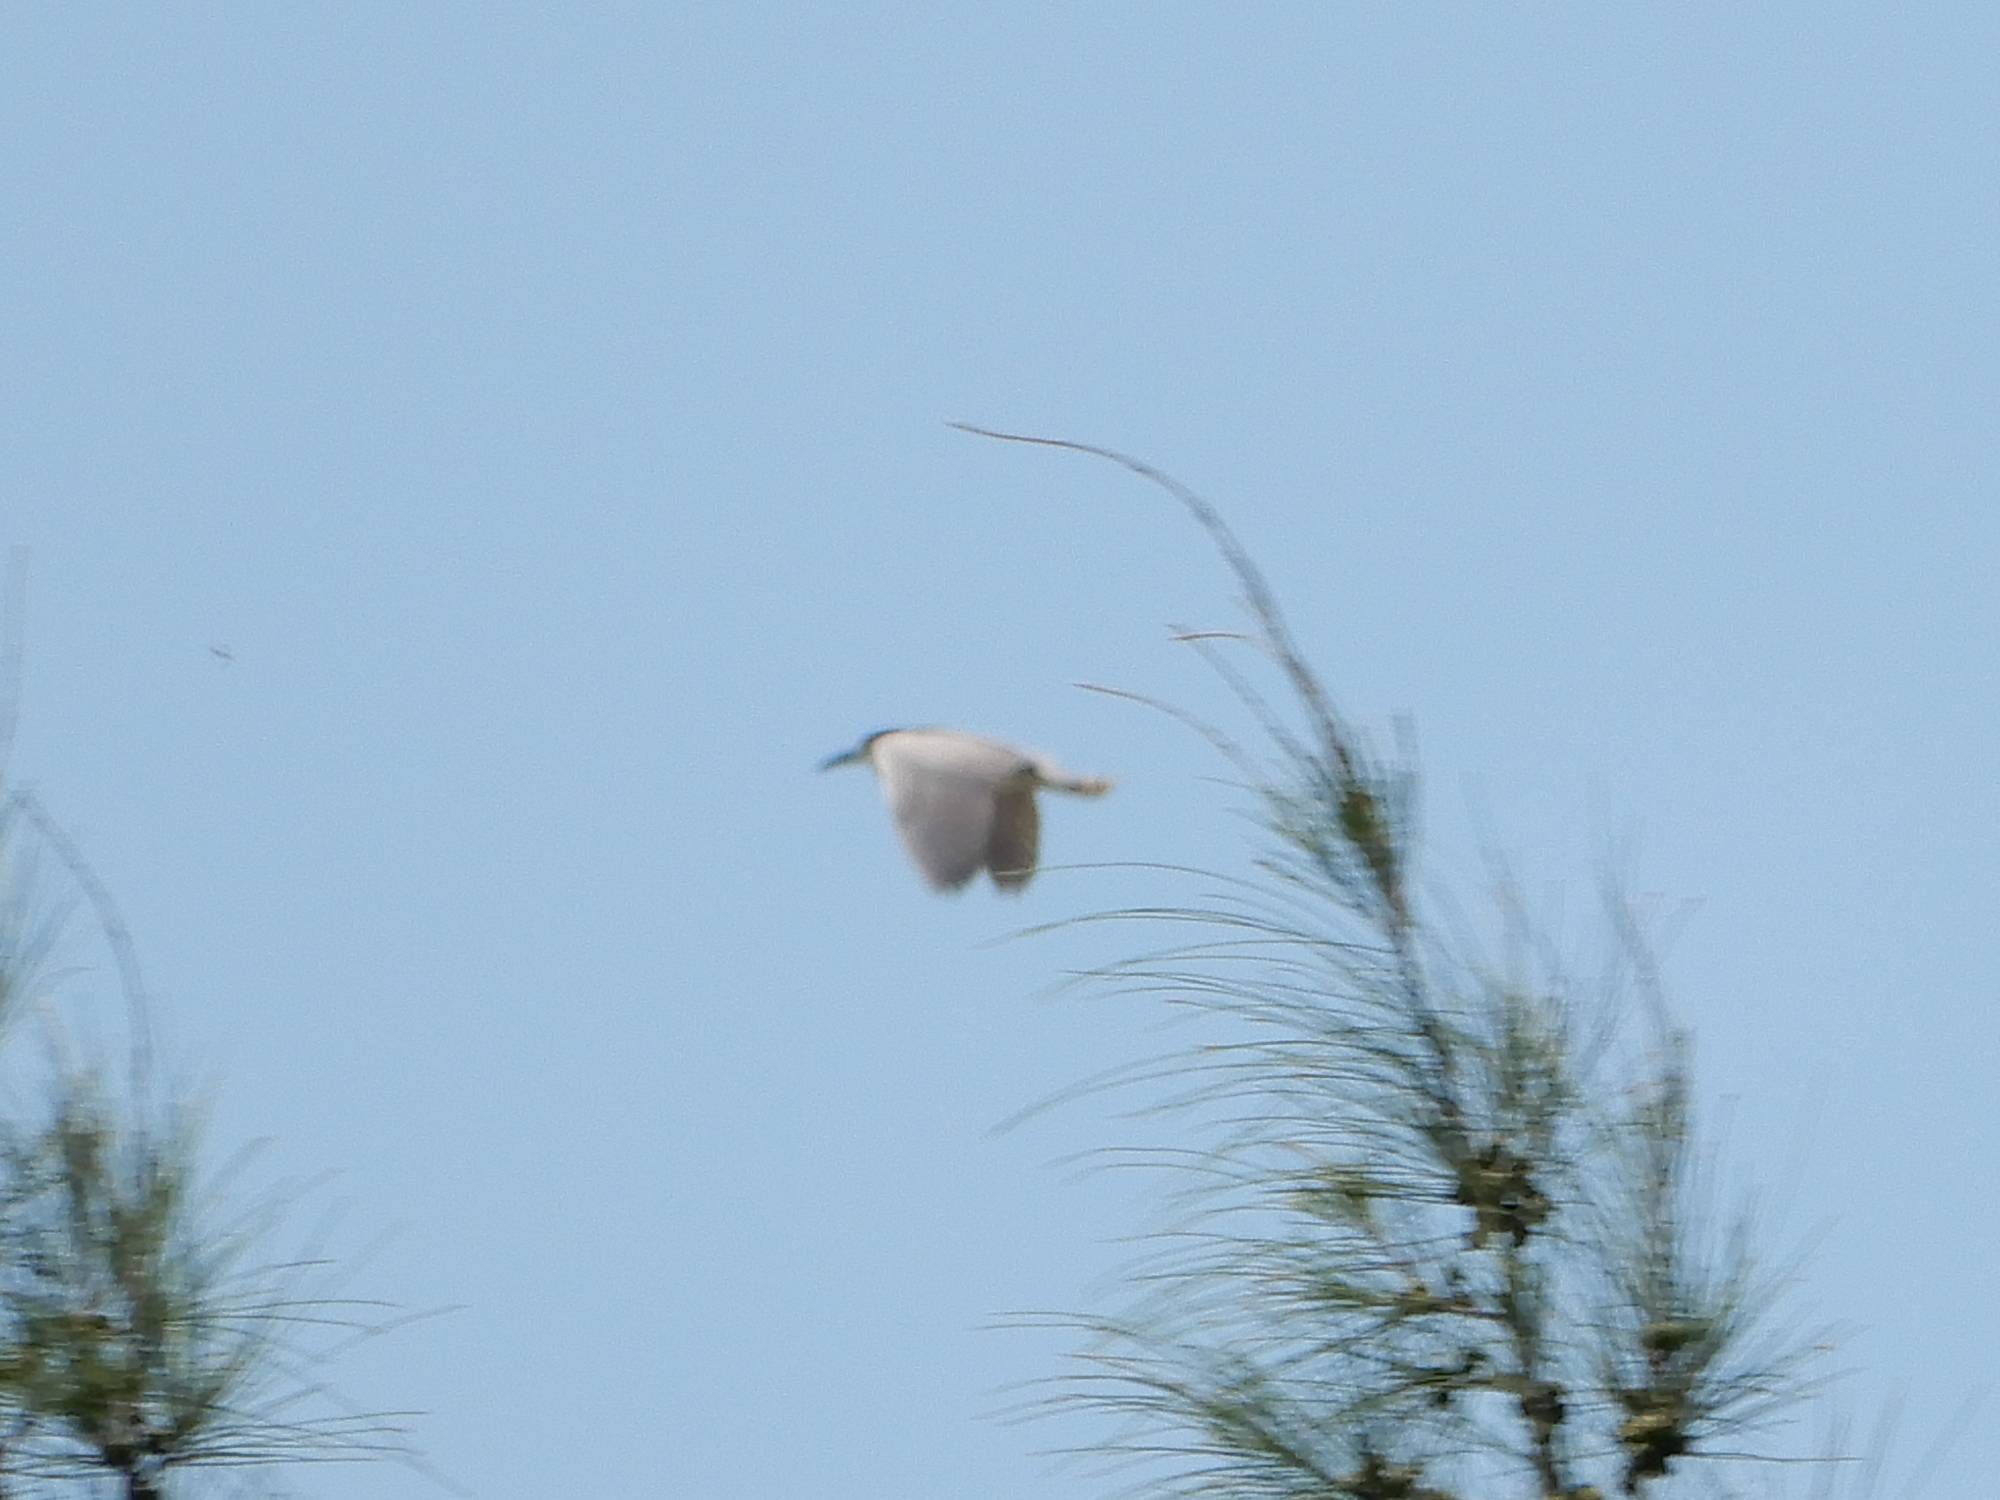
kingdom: Animalia
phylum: Chordata
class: Aves
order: Pelecaniformes
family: Ardeidae
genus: Nycticorax
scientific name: Nycticorax nycticorax
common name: Black-crowned night heron
